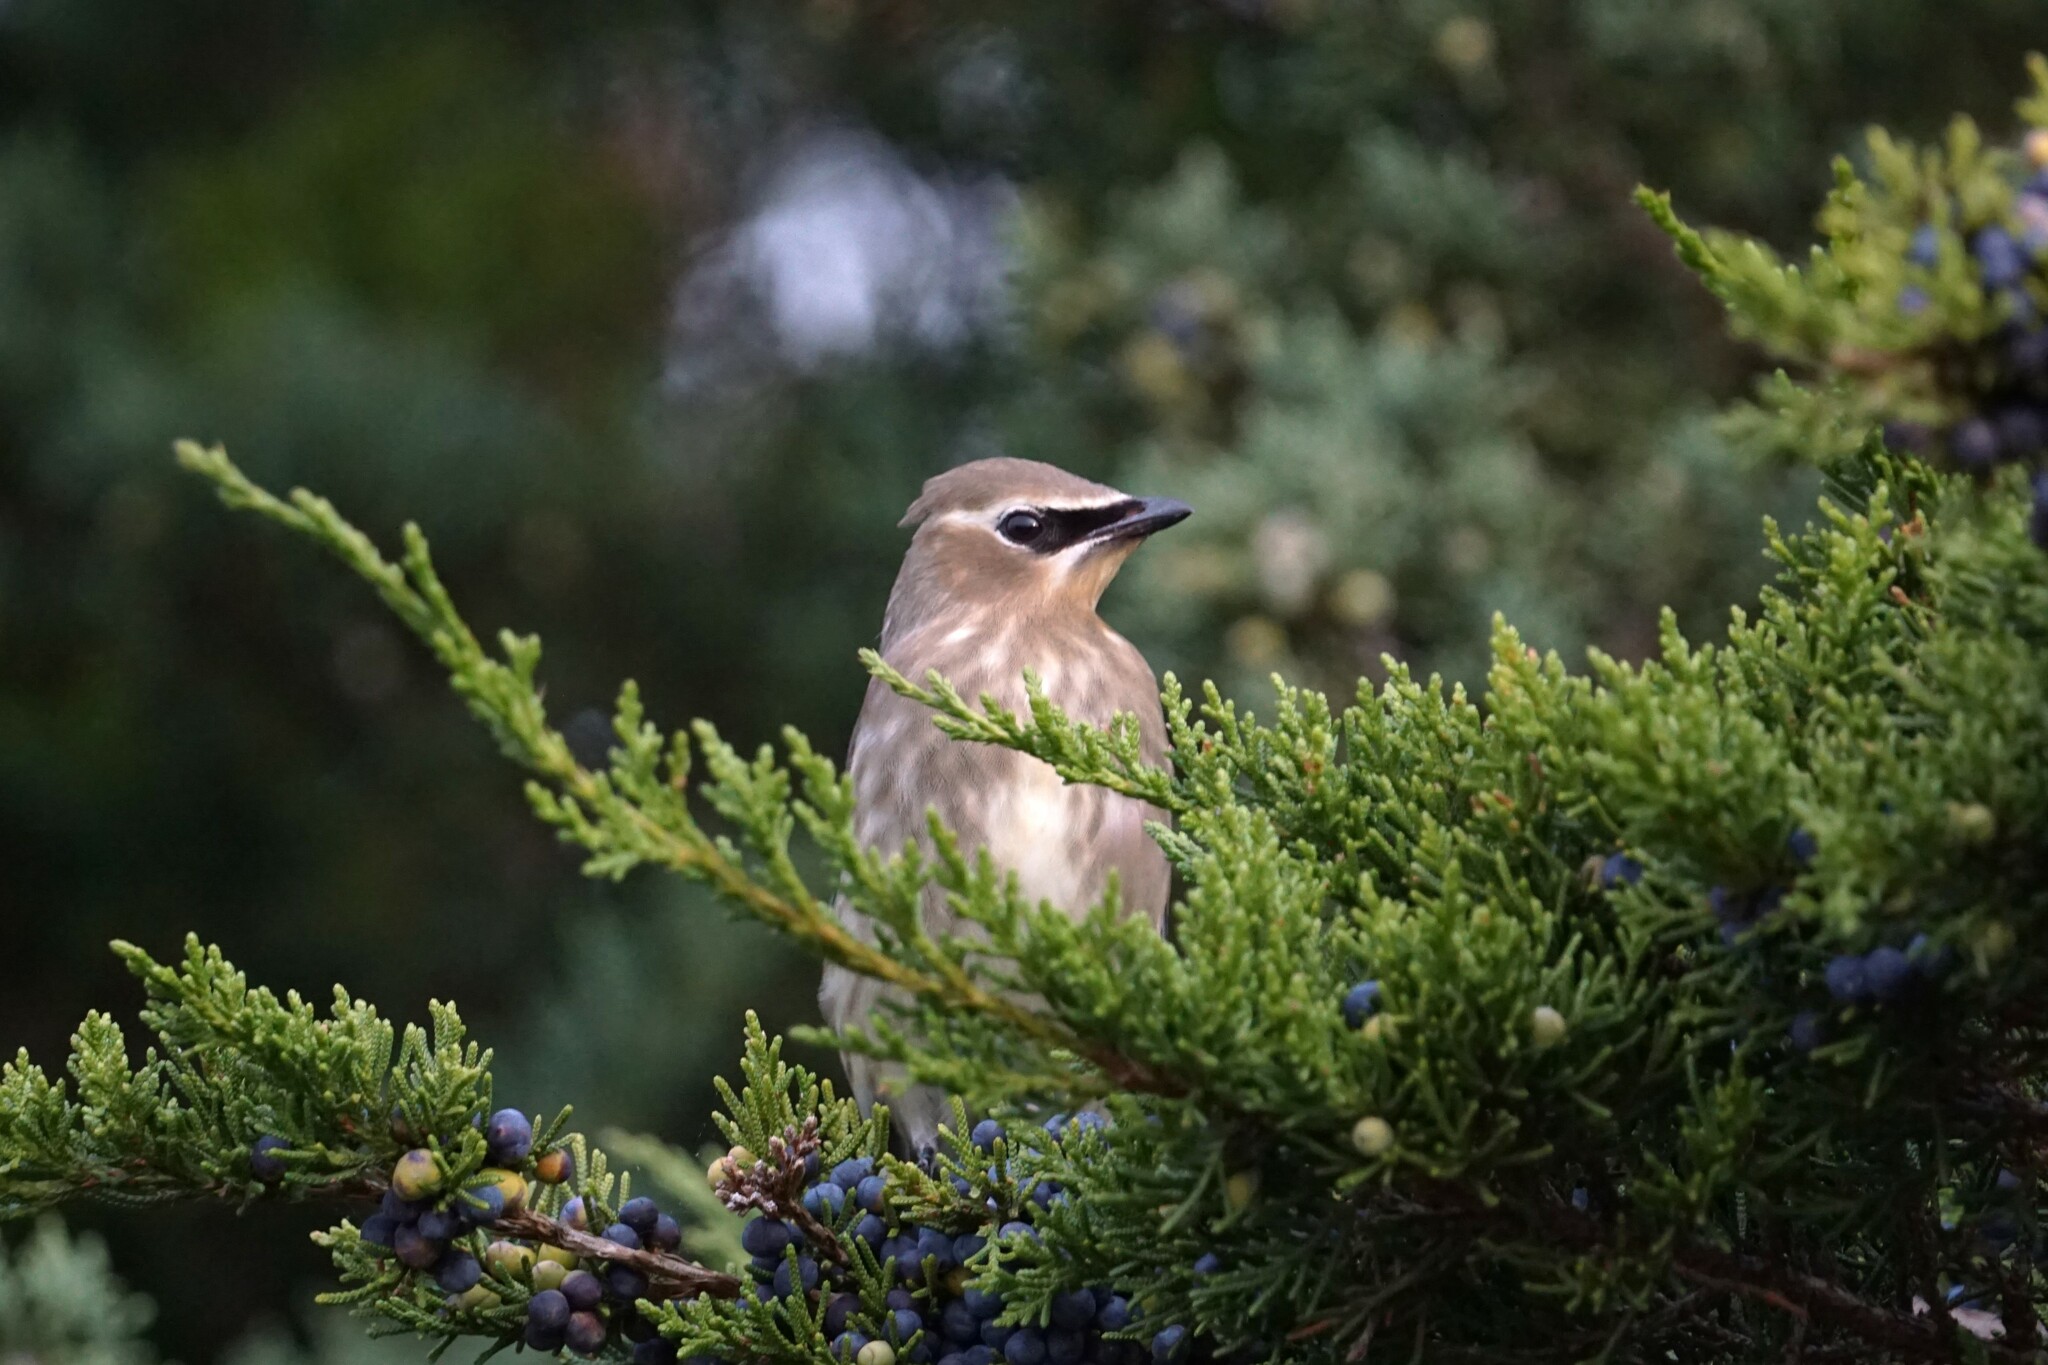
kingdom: Animalia
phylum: Chordata
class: Aves
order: Passeriformes
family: Bombycillidae
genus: Bombycilla
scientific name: Bombycilla cedrorum
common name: Cedar waxwing
